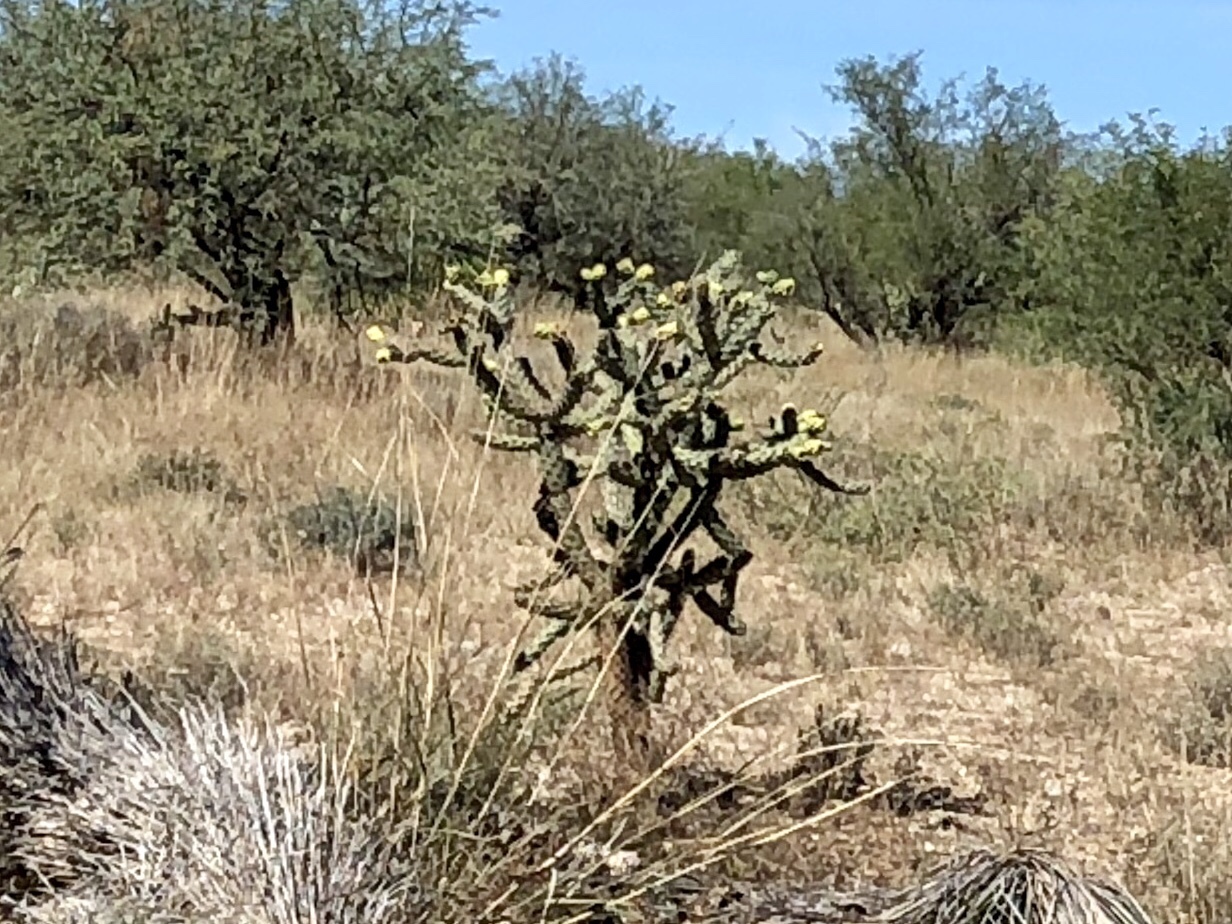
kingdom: Plantae
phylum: Tracheophyta
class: Magnoliopsida
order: Caryophyllales
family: Cactaceae
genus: Cylindropuntia
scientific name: Cylindropuntia imbricata
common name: Candelabrum cactus
